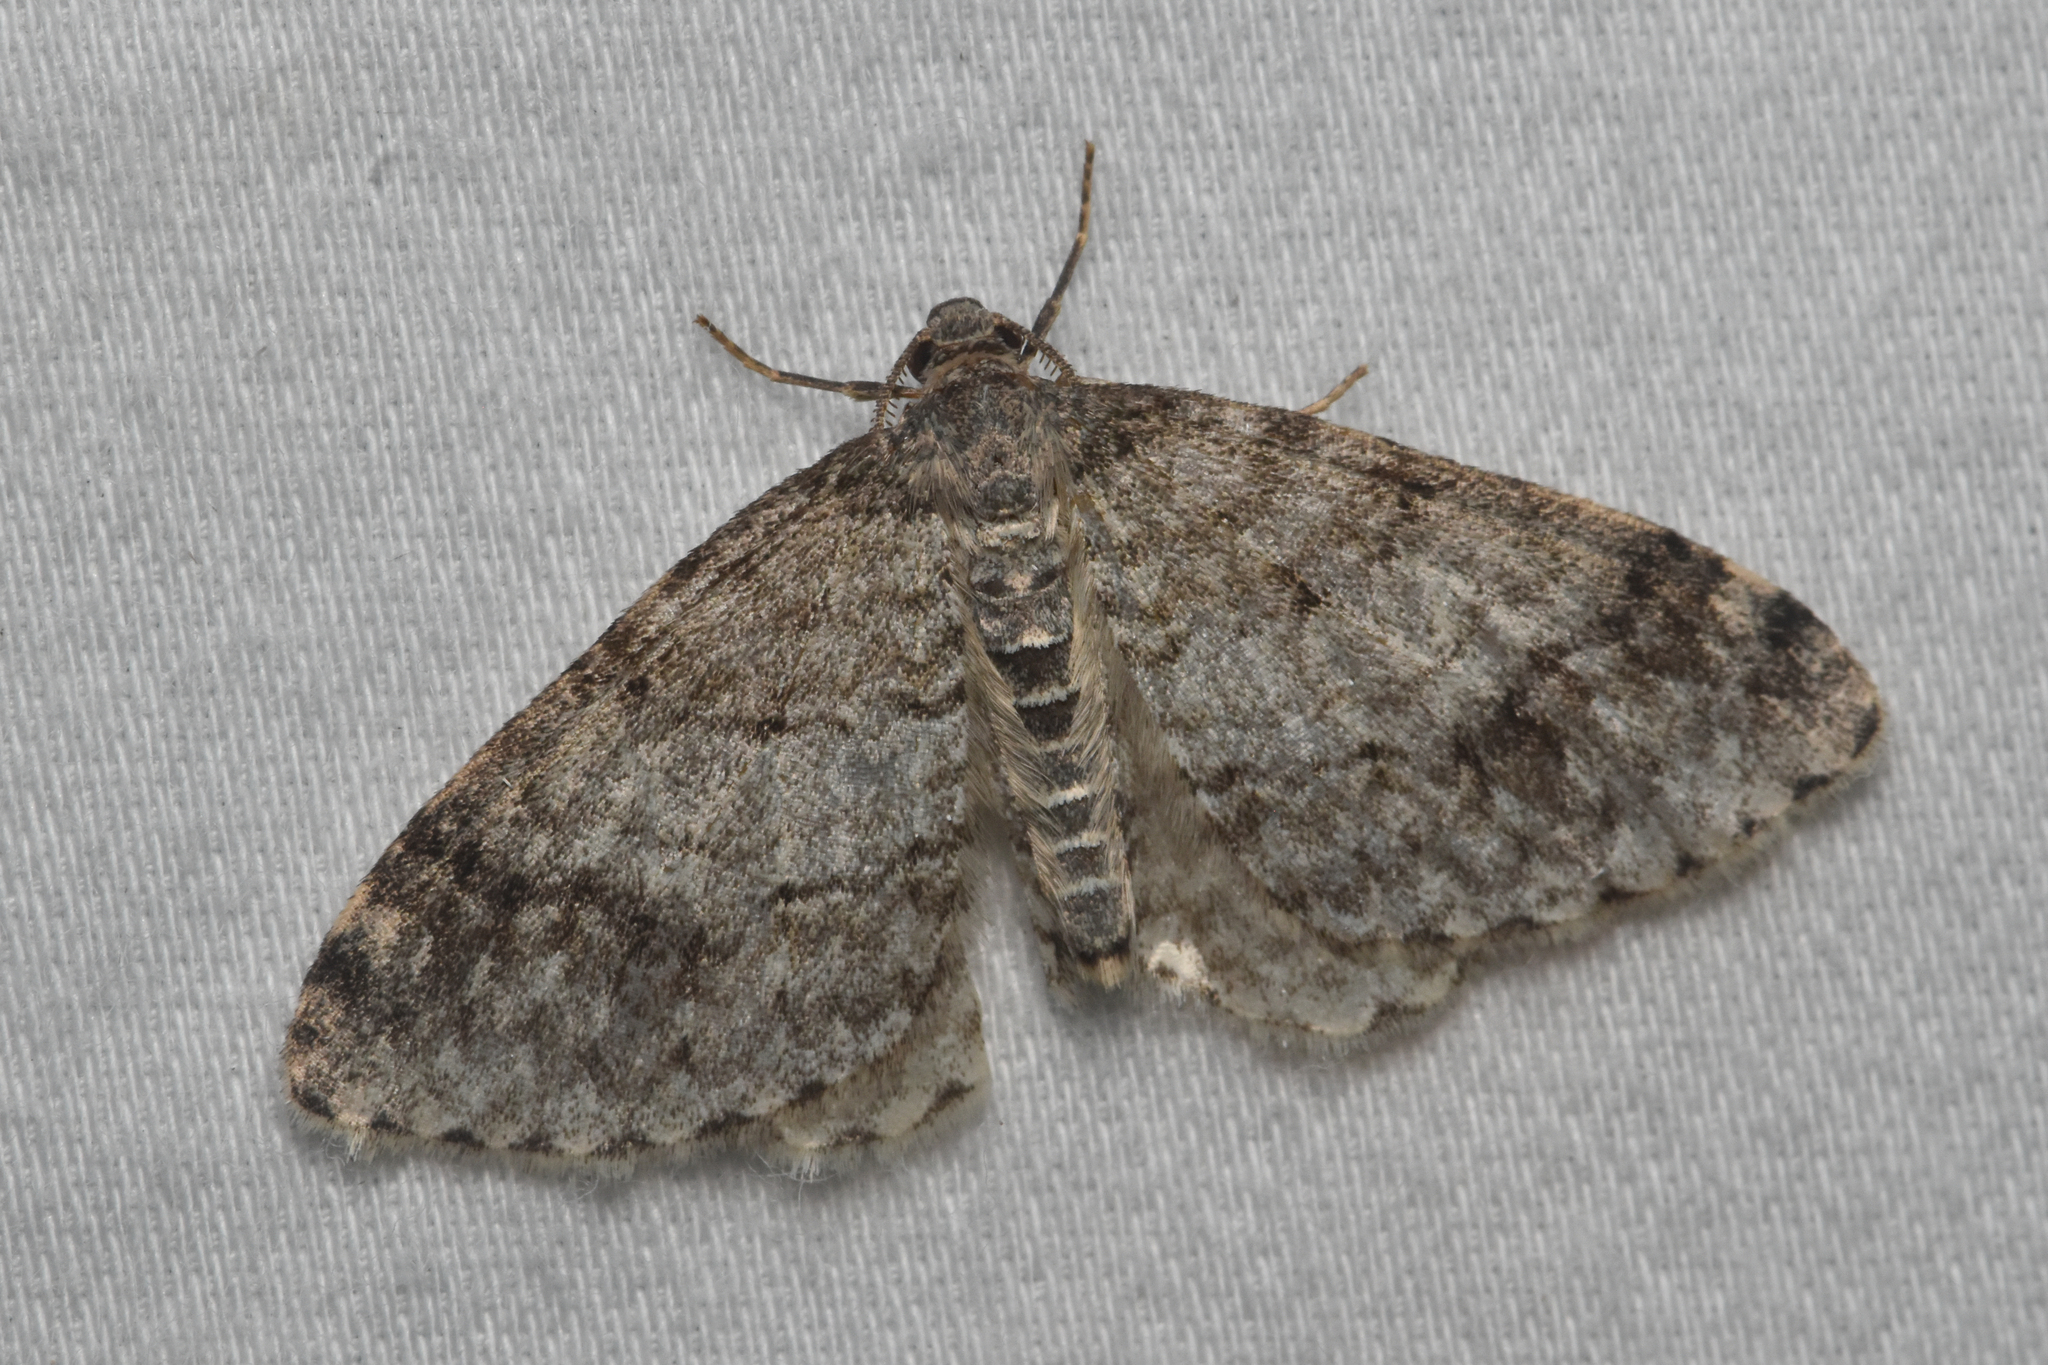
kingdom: Animalia
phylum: Arthropoda
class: Insecta
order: Lepidoptera
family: Geometridae
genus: Venusia
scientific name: Venusia cambrica
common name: Welsh wave
